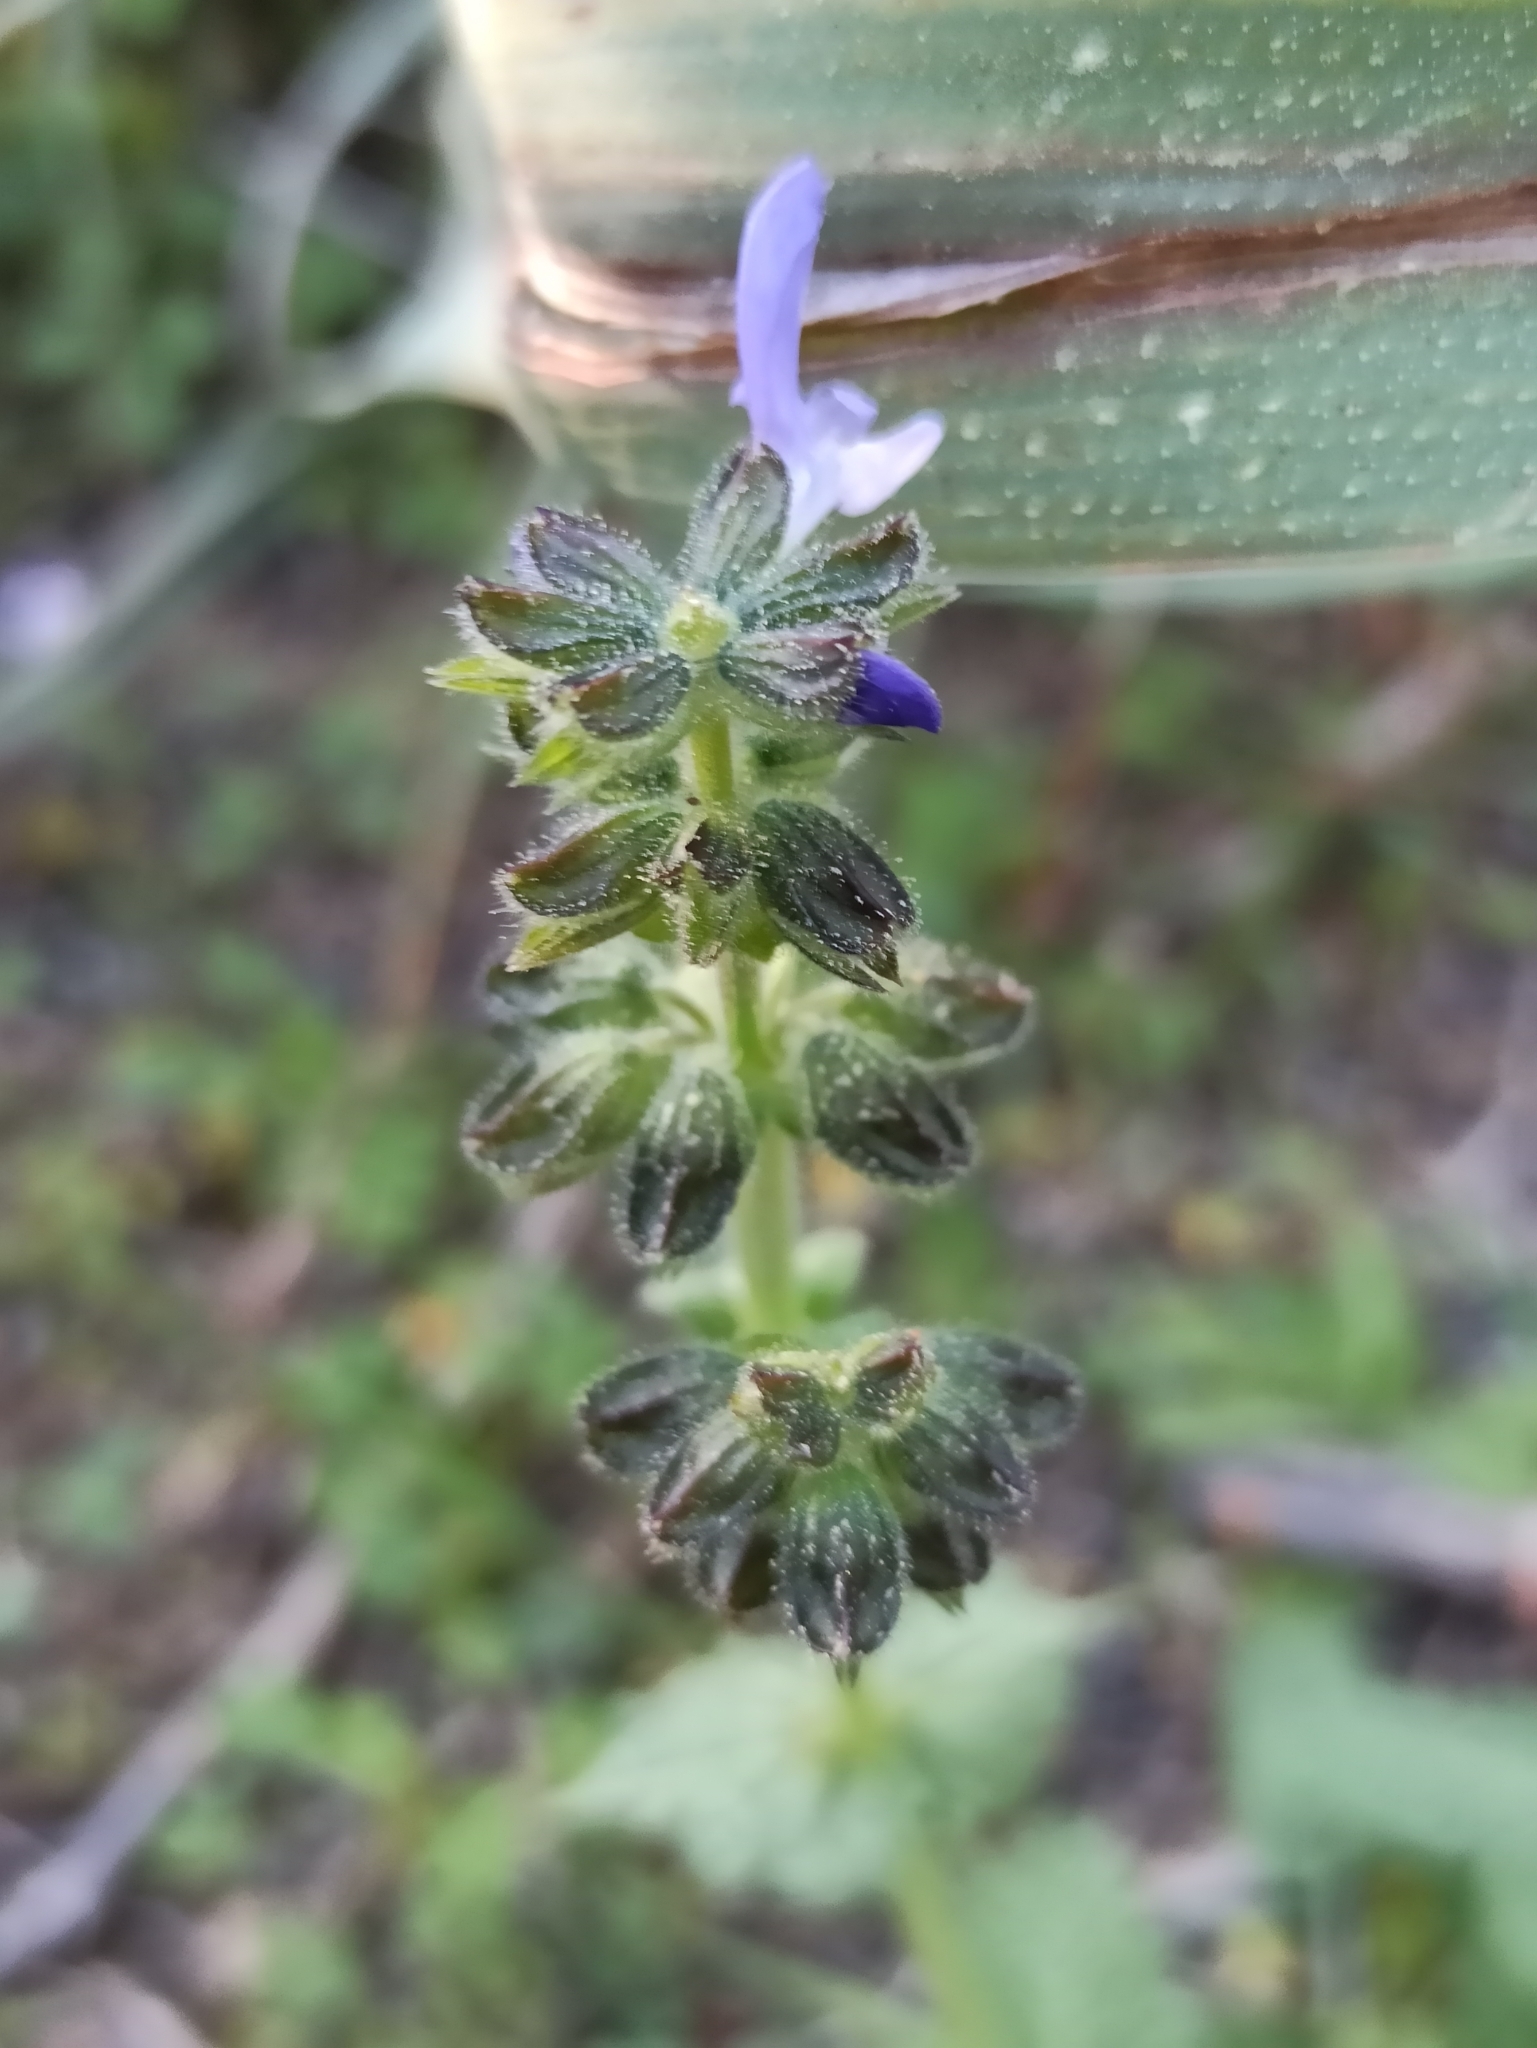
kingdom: Plantae
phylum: Tracheophyta
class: Magnoliopsida
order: Lamiales
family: Lamiaceae
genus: Salvia
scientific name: Salvia verbenaca
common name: Wild clary
